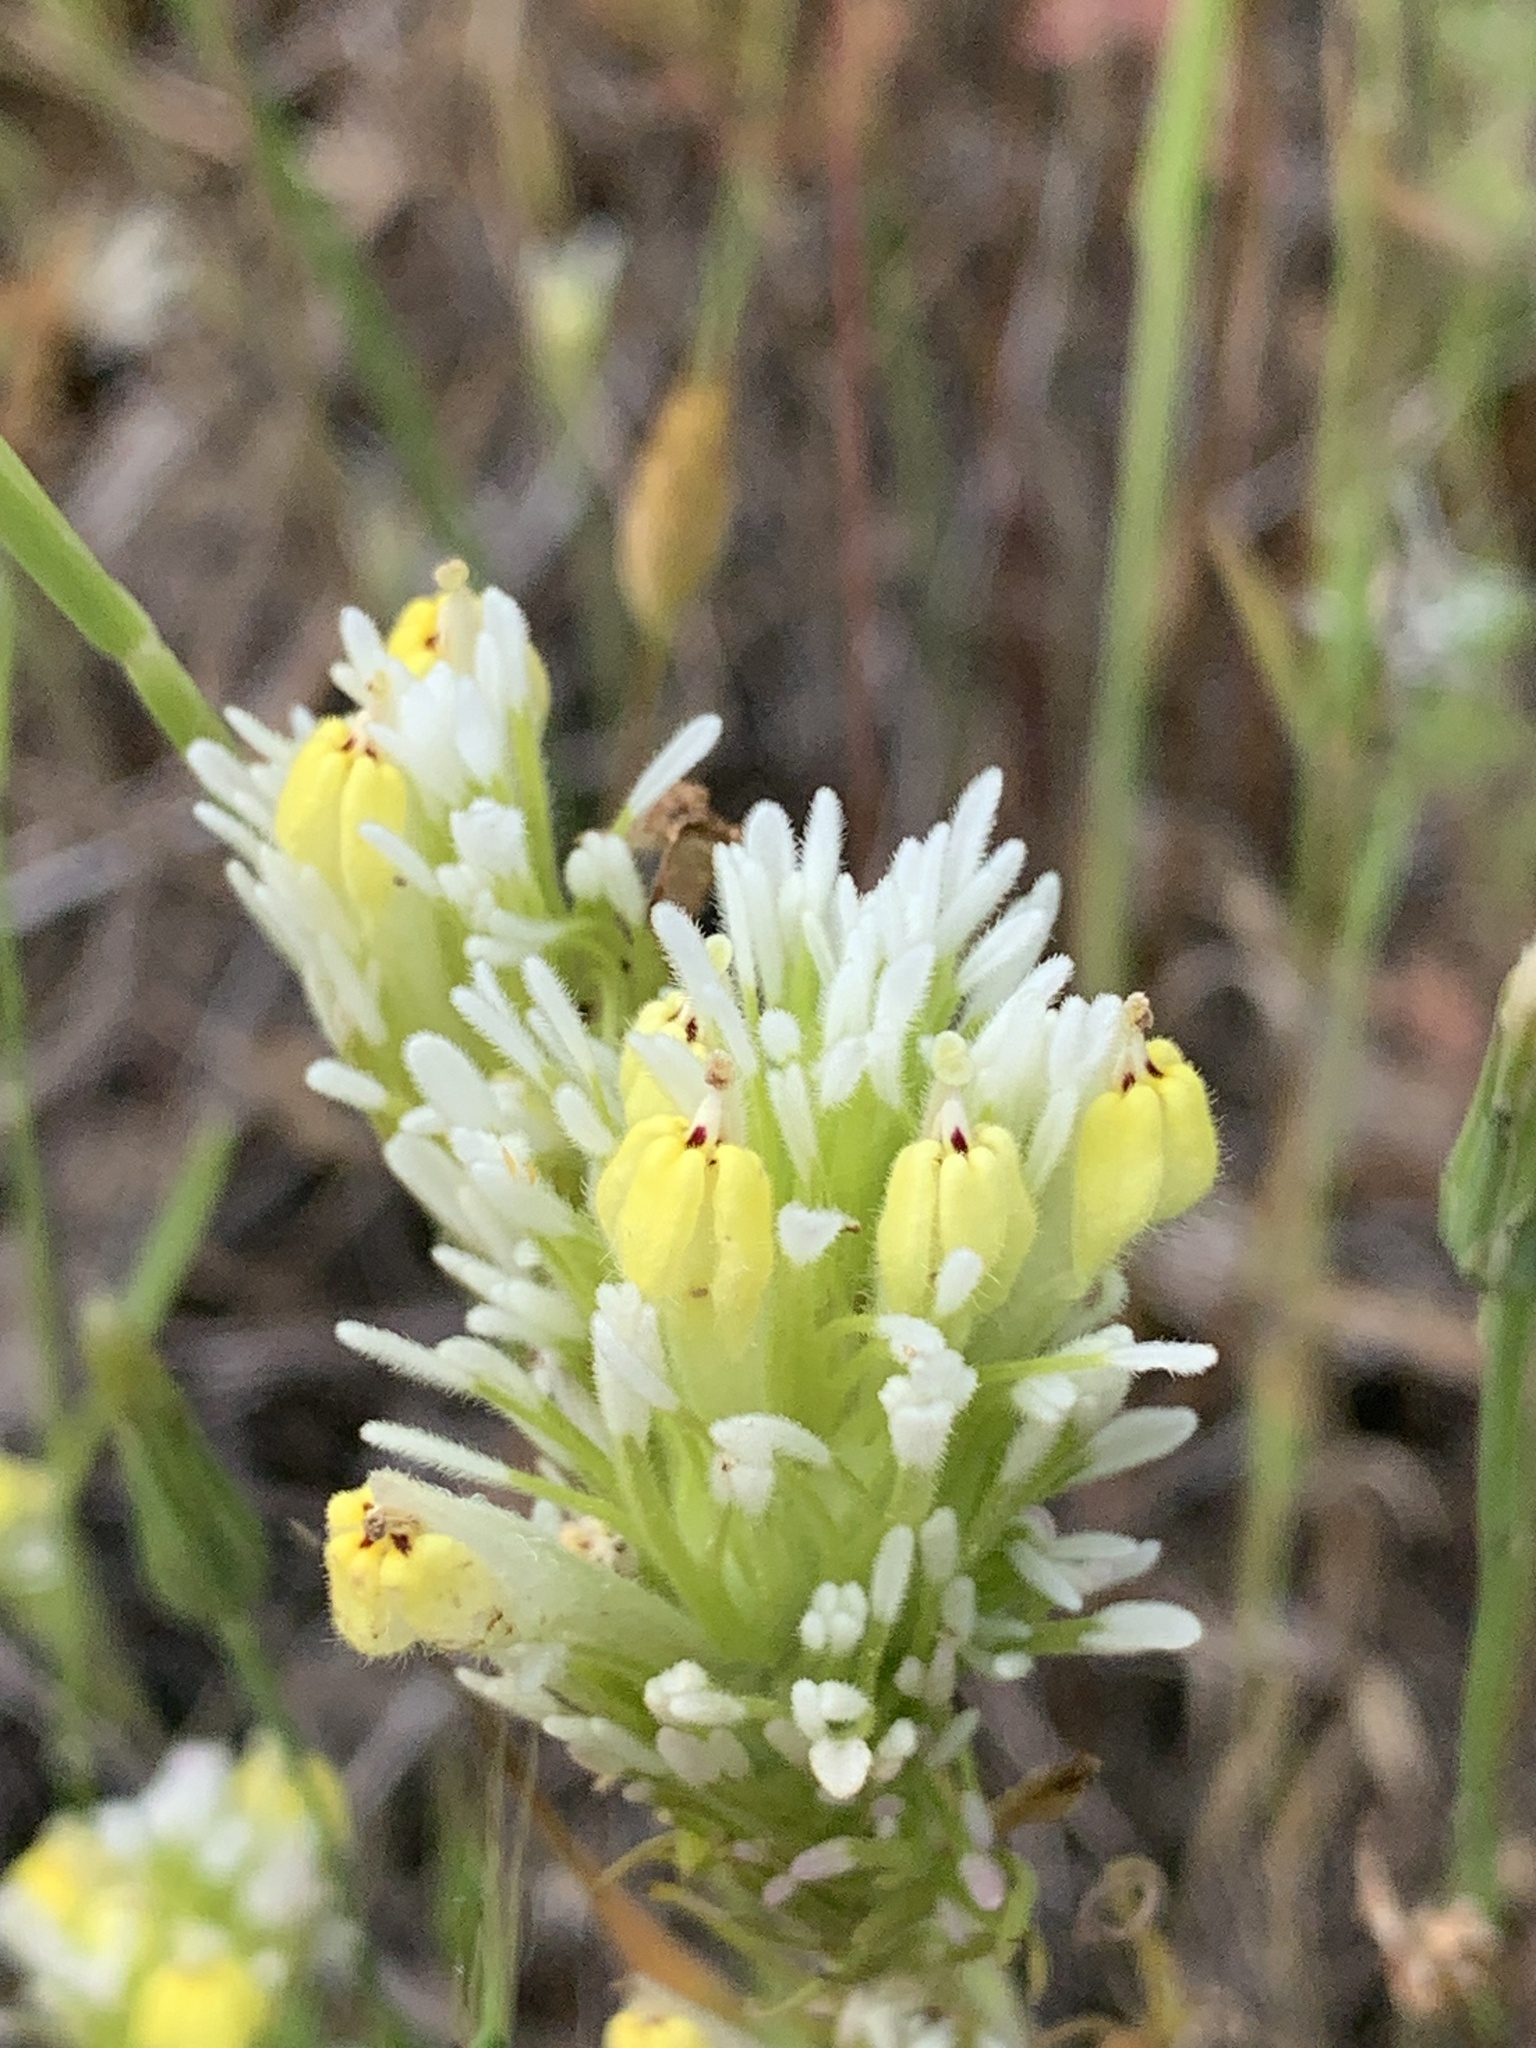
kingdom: Plantae
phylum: Tracheophyta
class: Magnoliopsida
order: Lamiales
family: Orobanchaceae
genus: Castilleja
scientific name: Castilleja lineariloba
